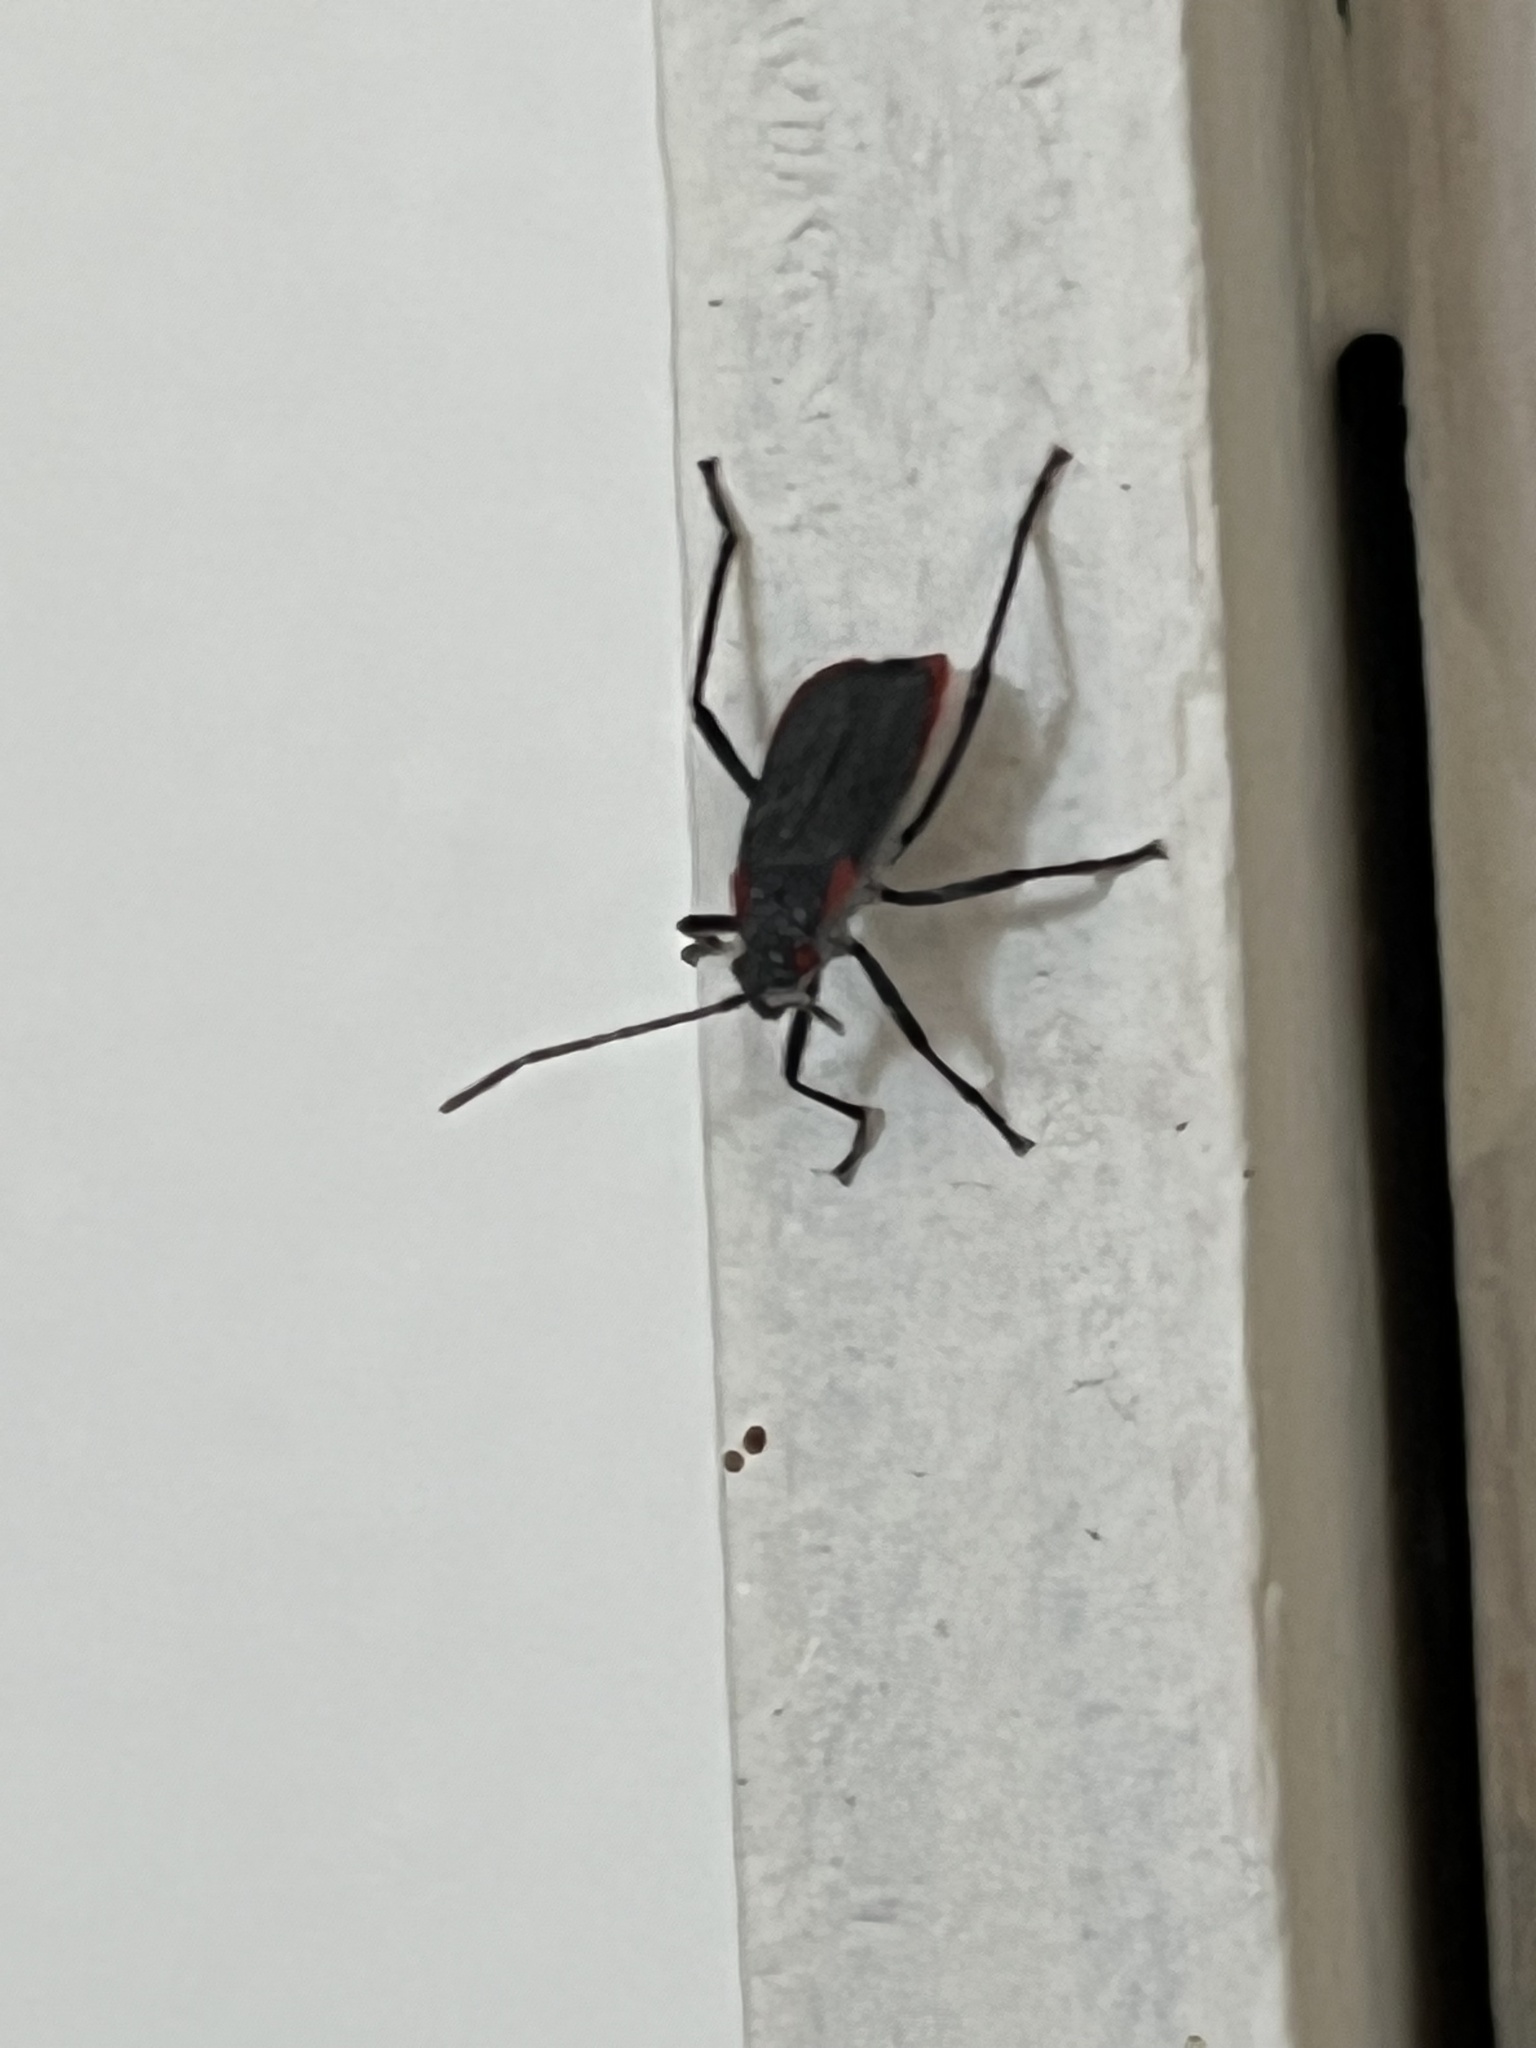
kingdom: Animalia
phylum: Arthropoda
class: Insecta
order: Hemiptera
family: Rhopalidae
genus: Jadera
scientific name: Jadera haematoloma
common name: Red-shouldered bug
